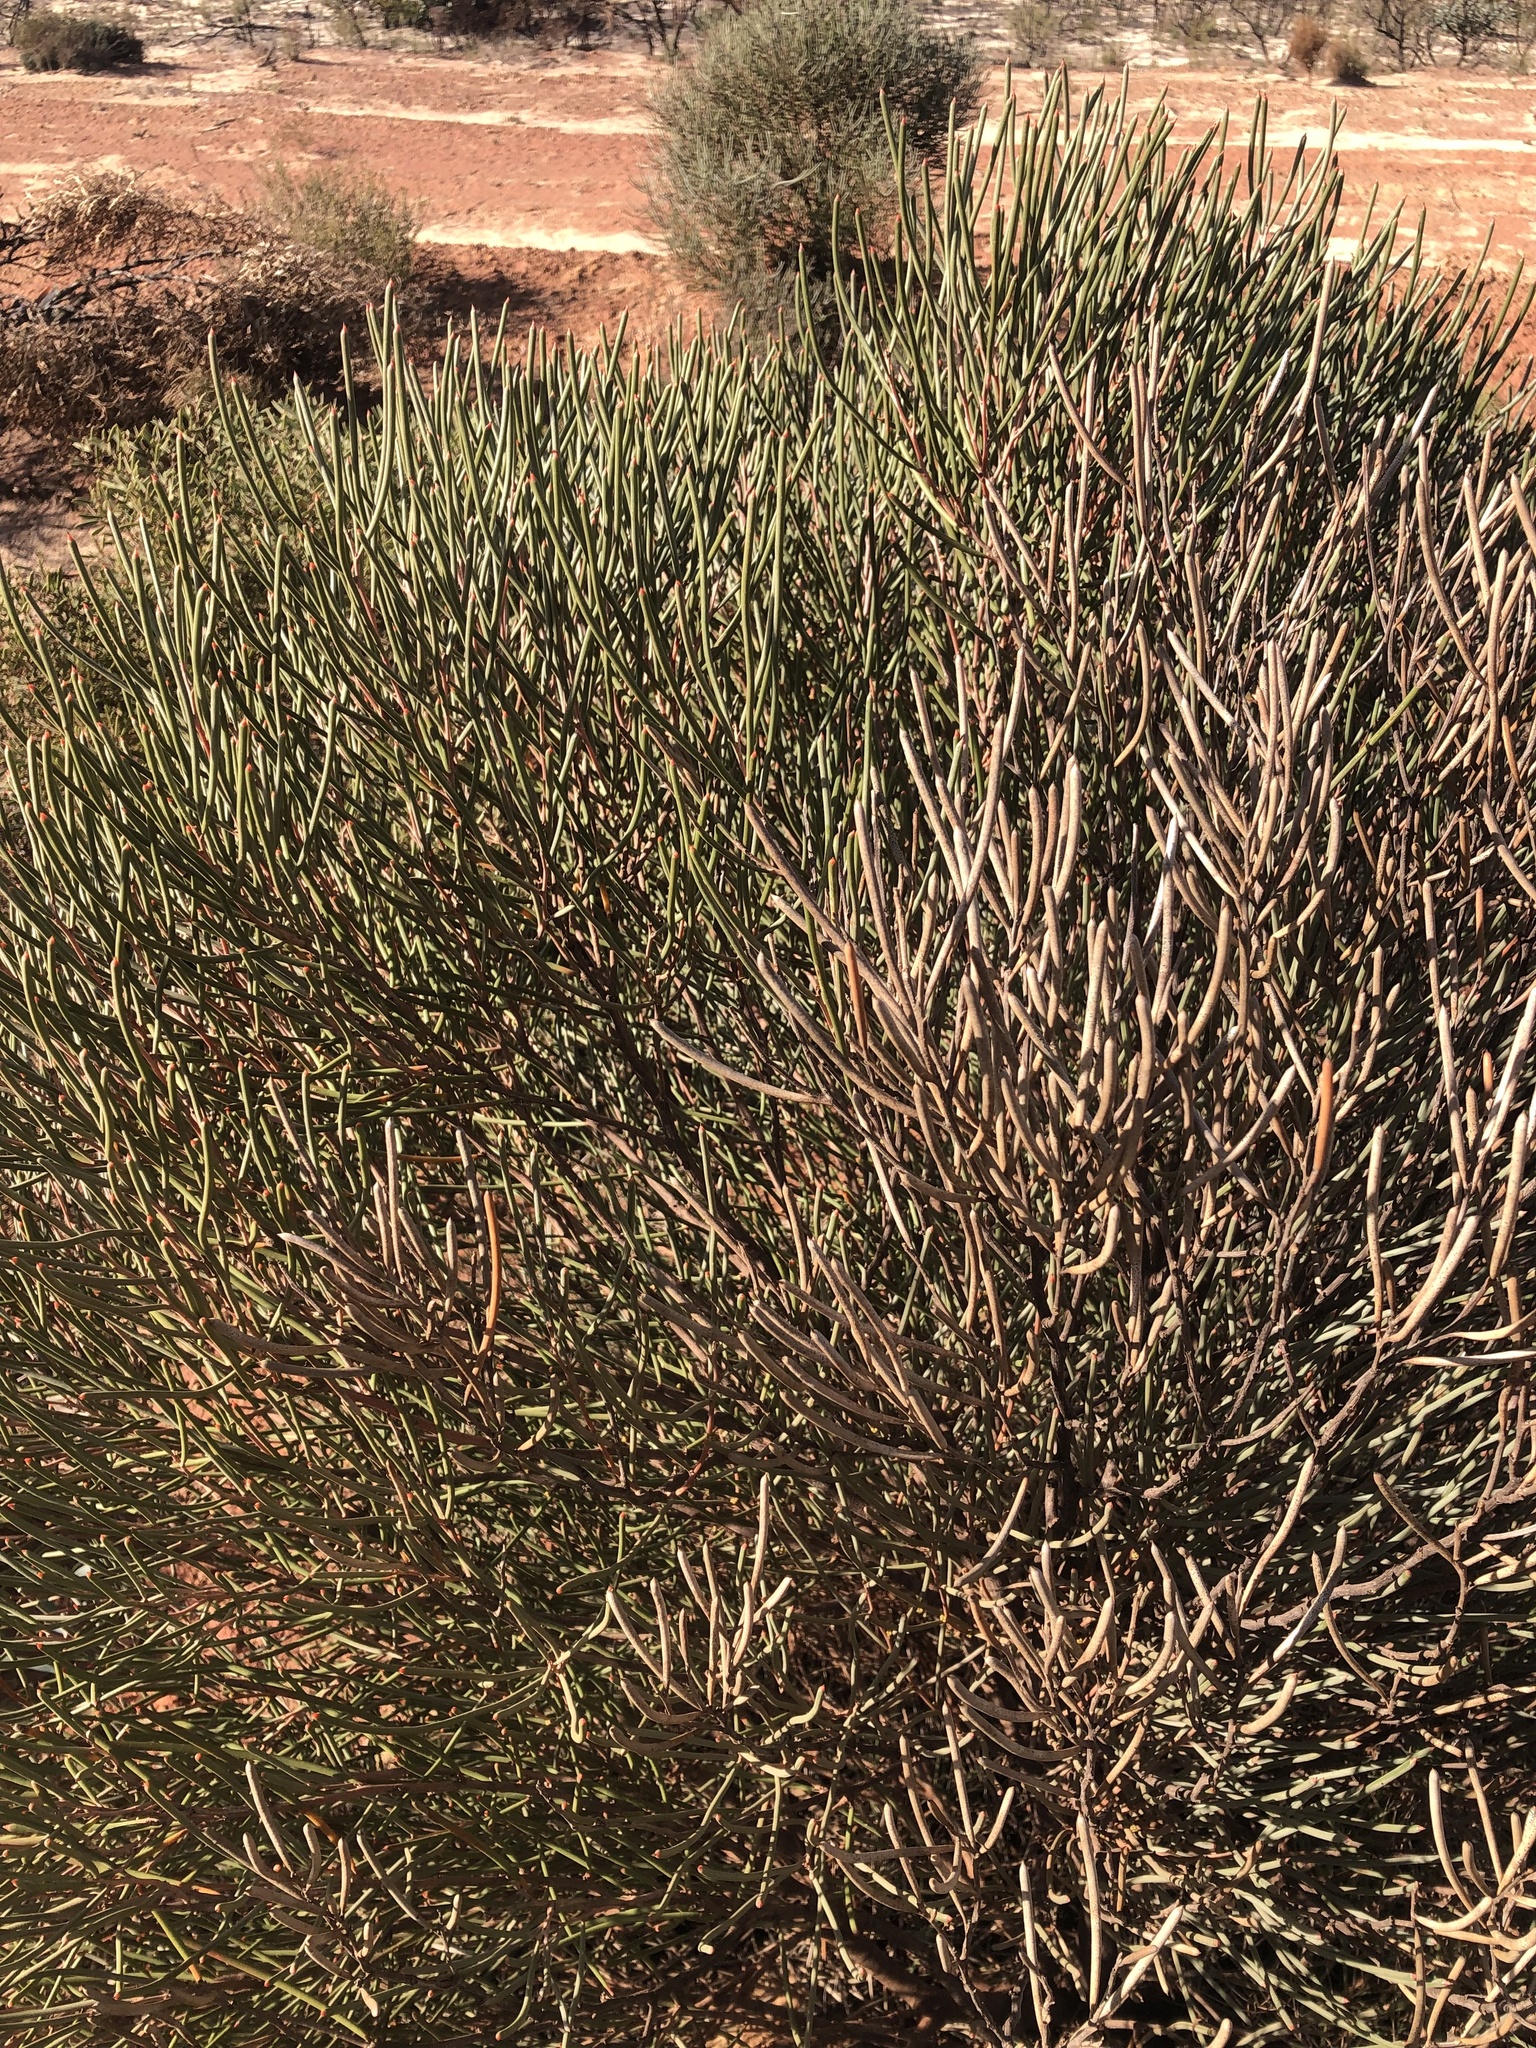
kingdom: Plantae
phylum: Tracheophyta
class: Magnoliopsida
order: Proteales
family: Proteaceae
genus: Hakea
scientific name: Hakea platysperma
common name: Cricket-ball hakea
